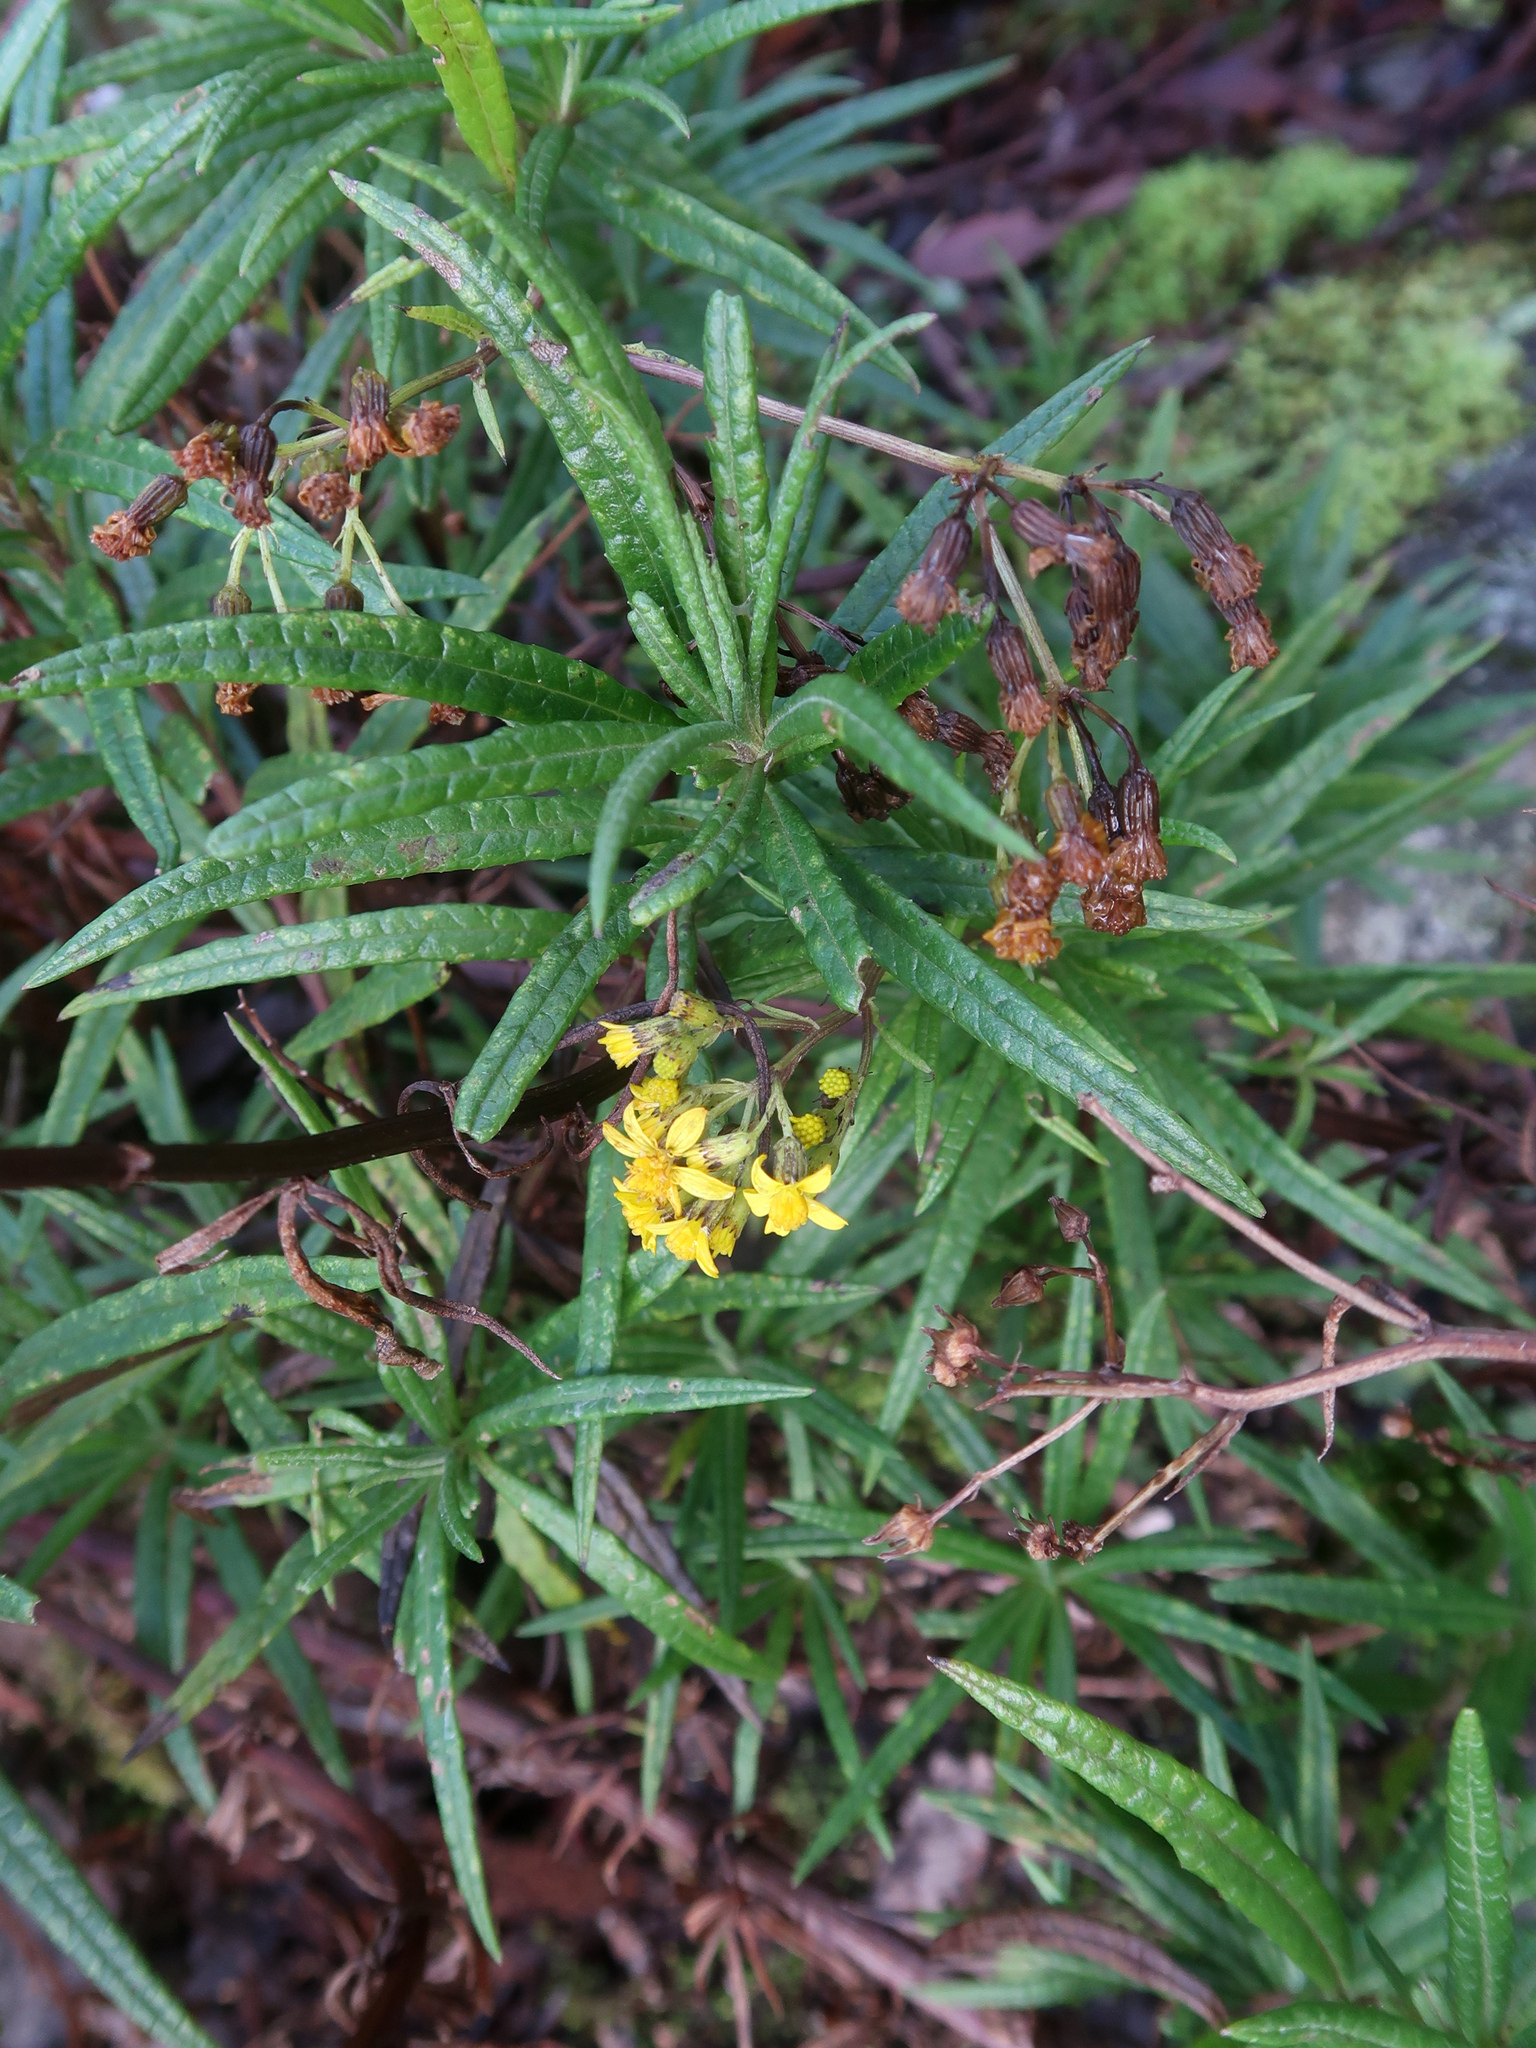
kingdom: Plantae
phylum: Tracheophyta
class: Magnoliopsida
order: Asterales
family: Asteraceae
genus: Senecio
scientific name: Senecio linearifolius
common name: Fireweed groundsel
